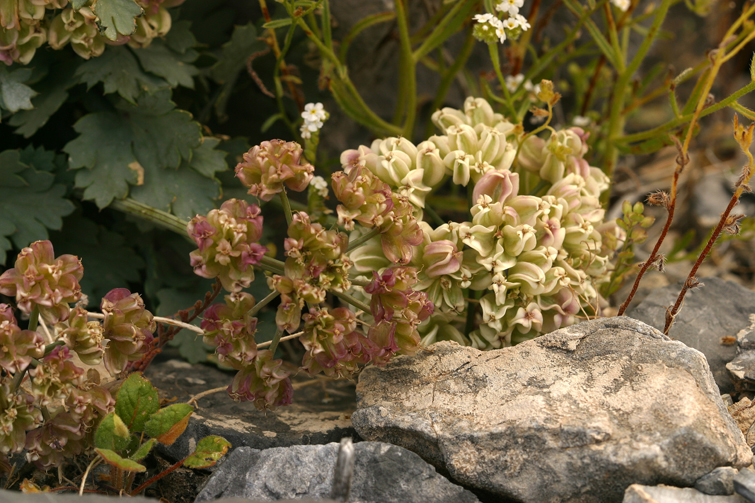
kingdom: Plantae
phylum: Tracheophyta
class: Magnoliopsida
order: Apiales
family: Apiaceae
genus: Cymopterus
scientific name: Cymopterus gilmanii
